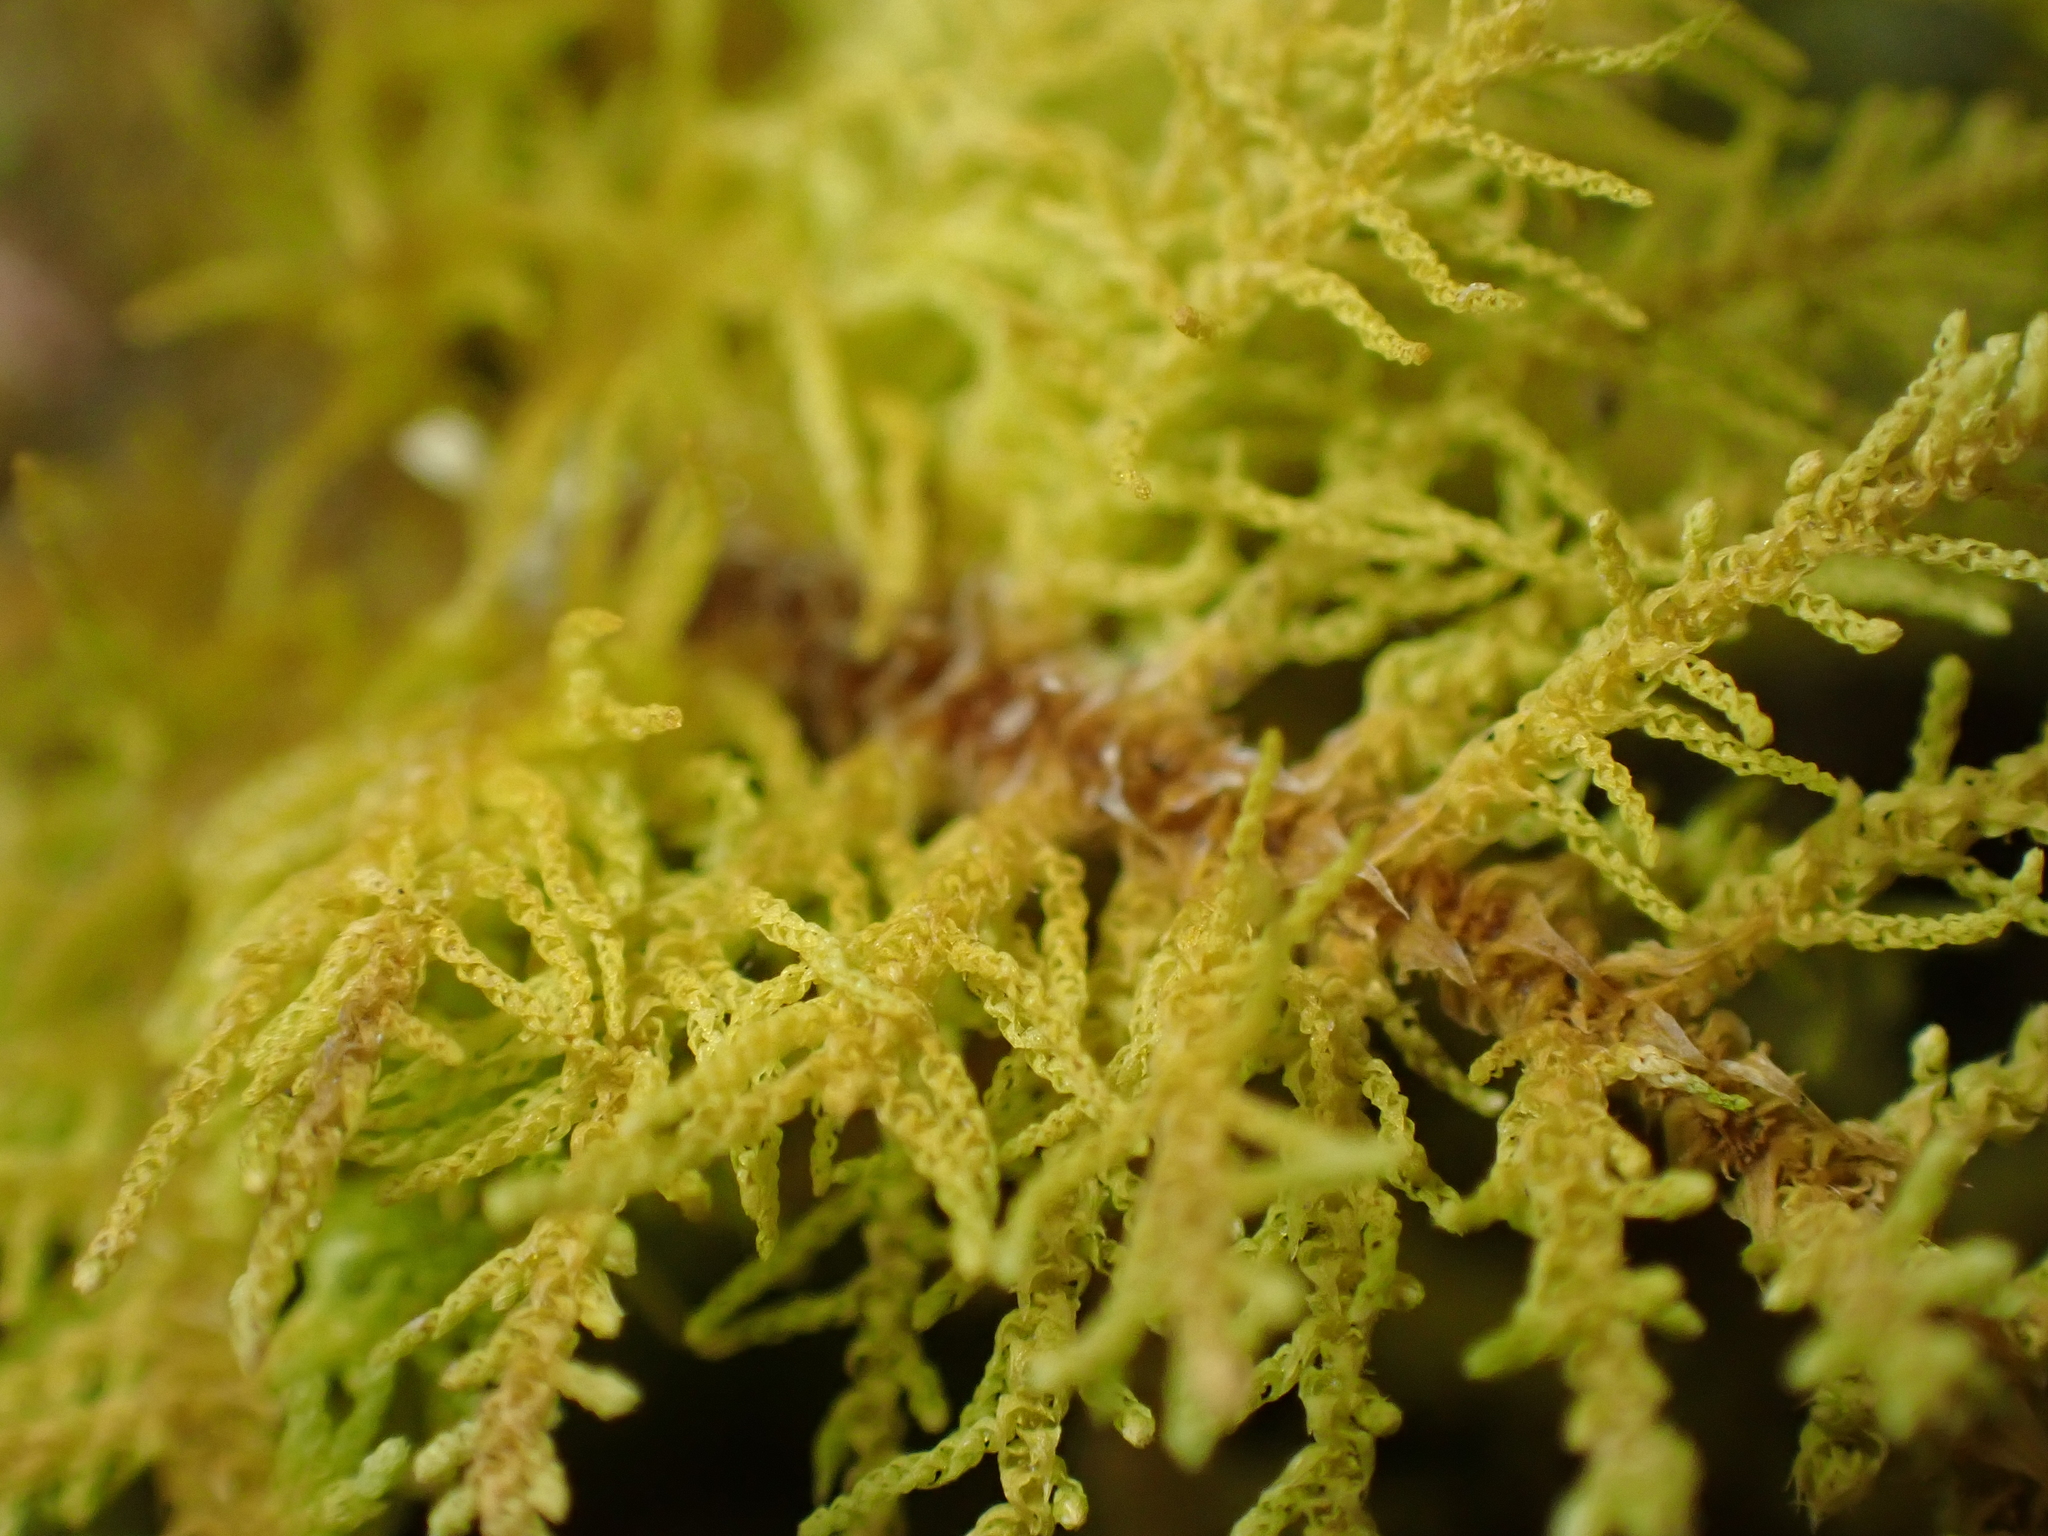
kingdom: Plantae
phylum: Bryophyta
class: Bryopsida
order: Hypnales
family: Thuidiaceae
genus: Thuidiopsis
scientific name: Thuidiopsis furfurosa
